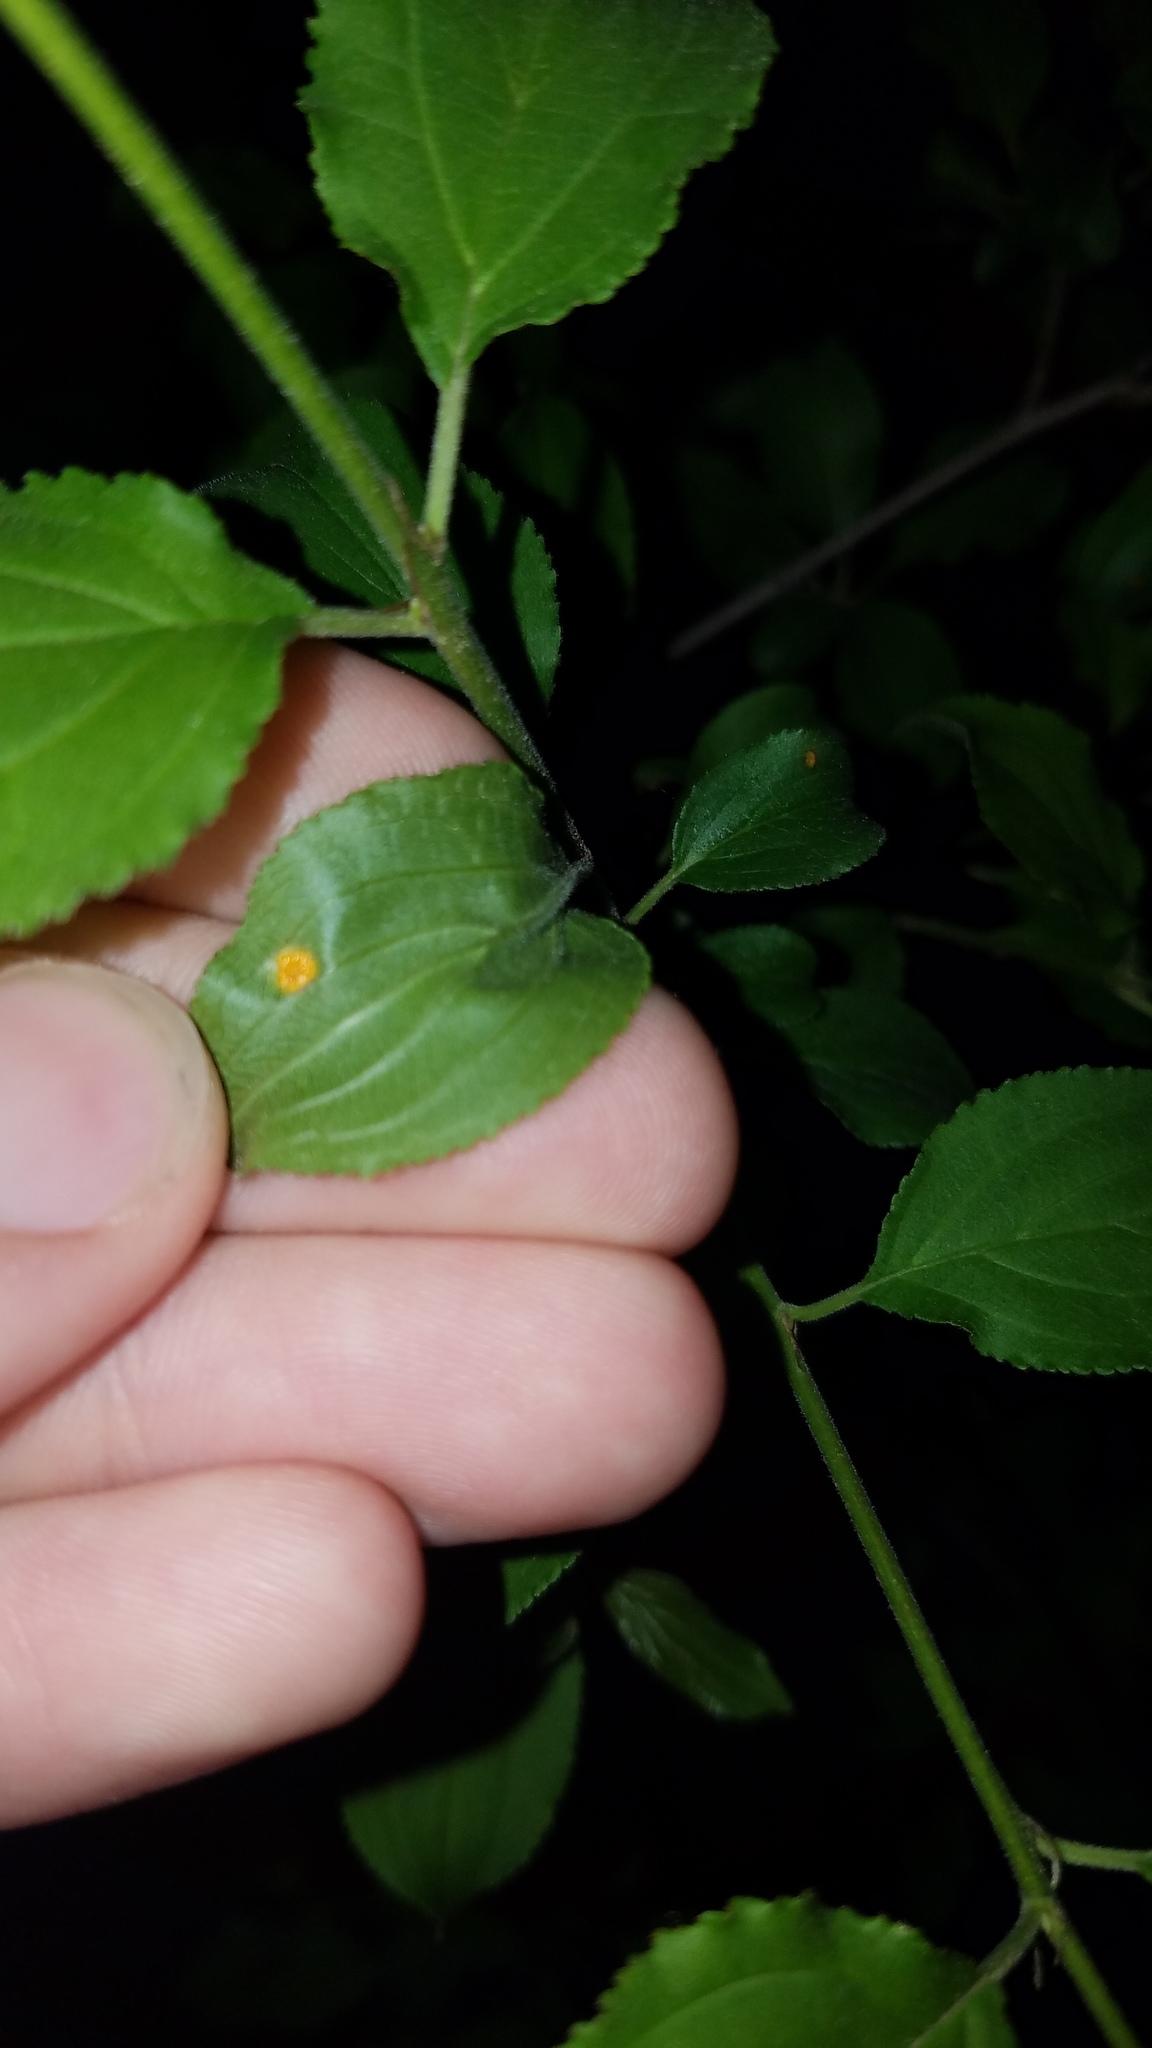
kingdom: Fungi
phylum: Basidiomycota
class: Pucciniomycetes
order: Pucciniales
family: Pucciniaceae
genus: Puccinia
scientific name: Puccinia coronata
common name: Crown rust
